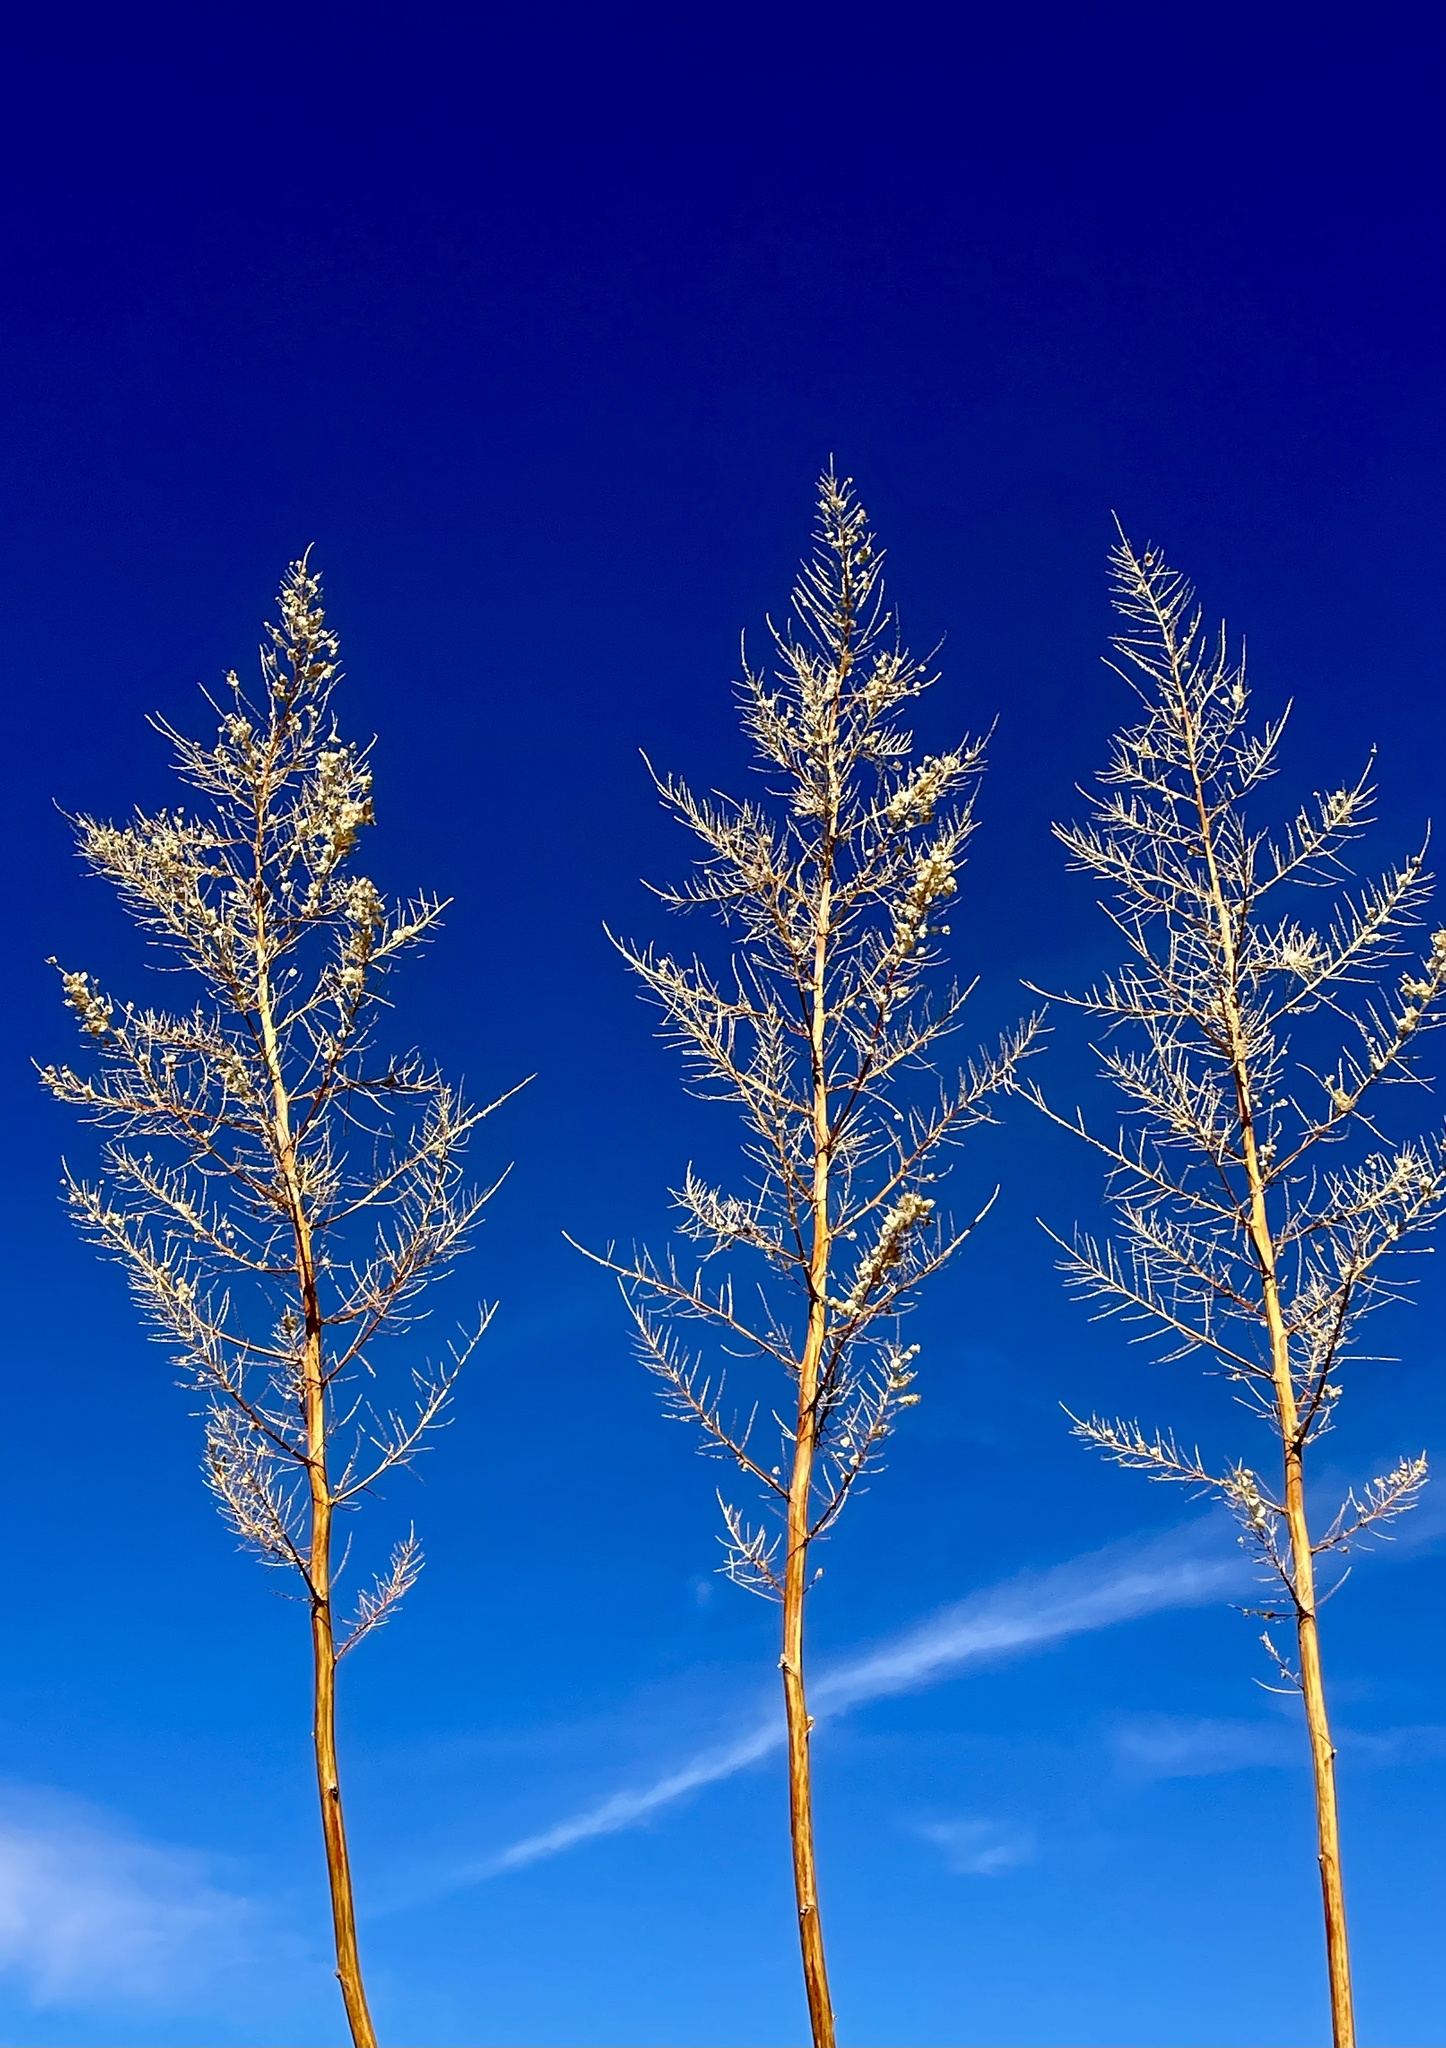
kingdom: Plantae
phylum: Tracheophyta
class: Liliopsida
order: Asparagales
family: Asparagaceae
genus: Nolina
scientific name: Nolina bigelovii
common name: Bigelow bear-grass
